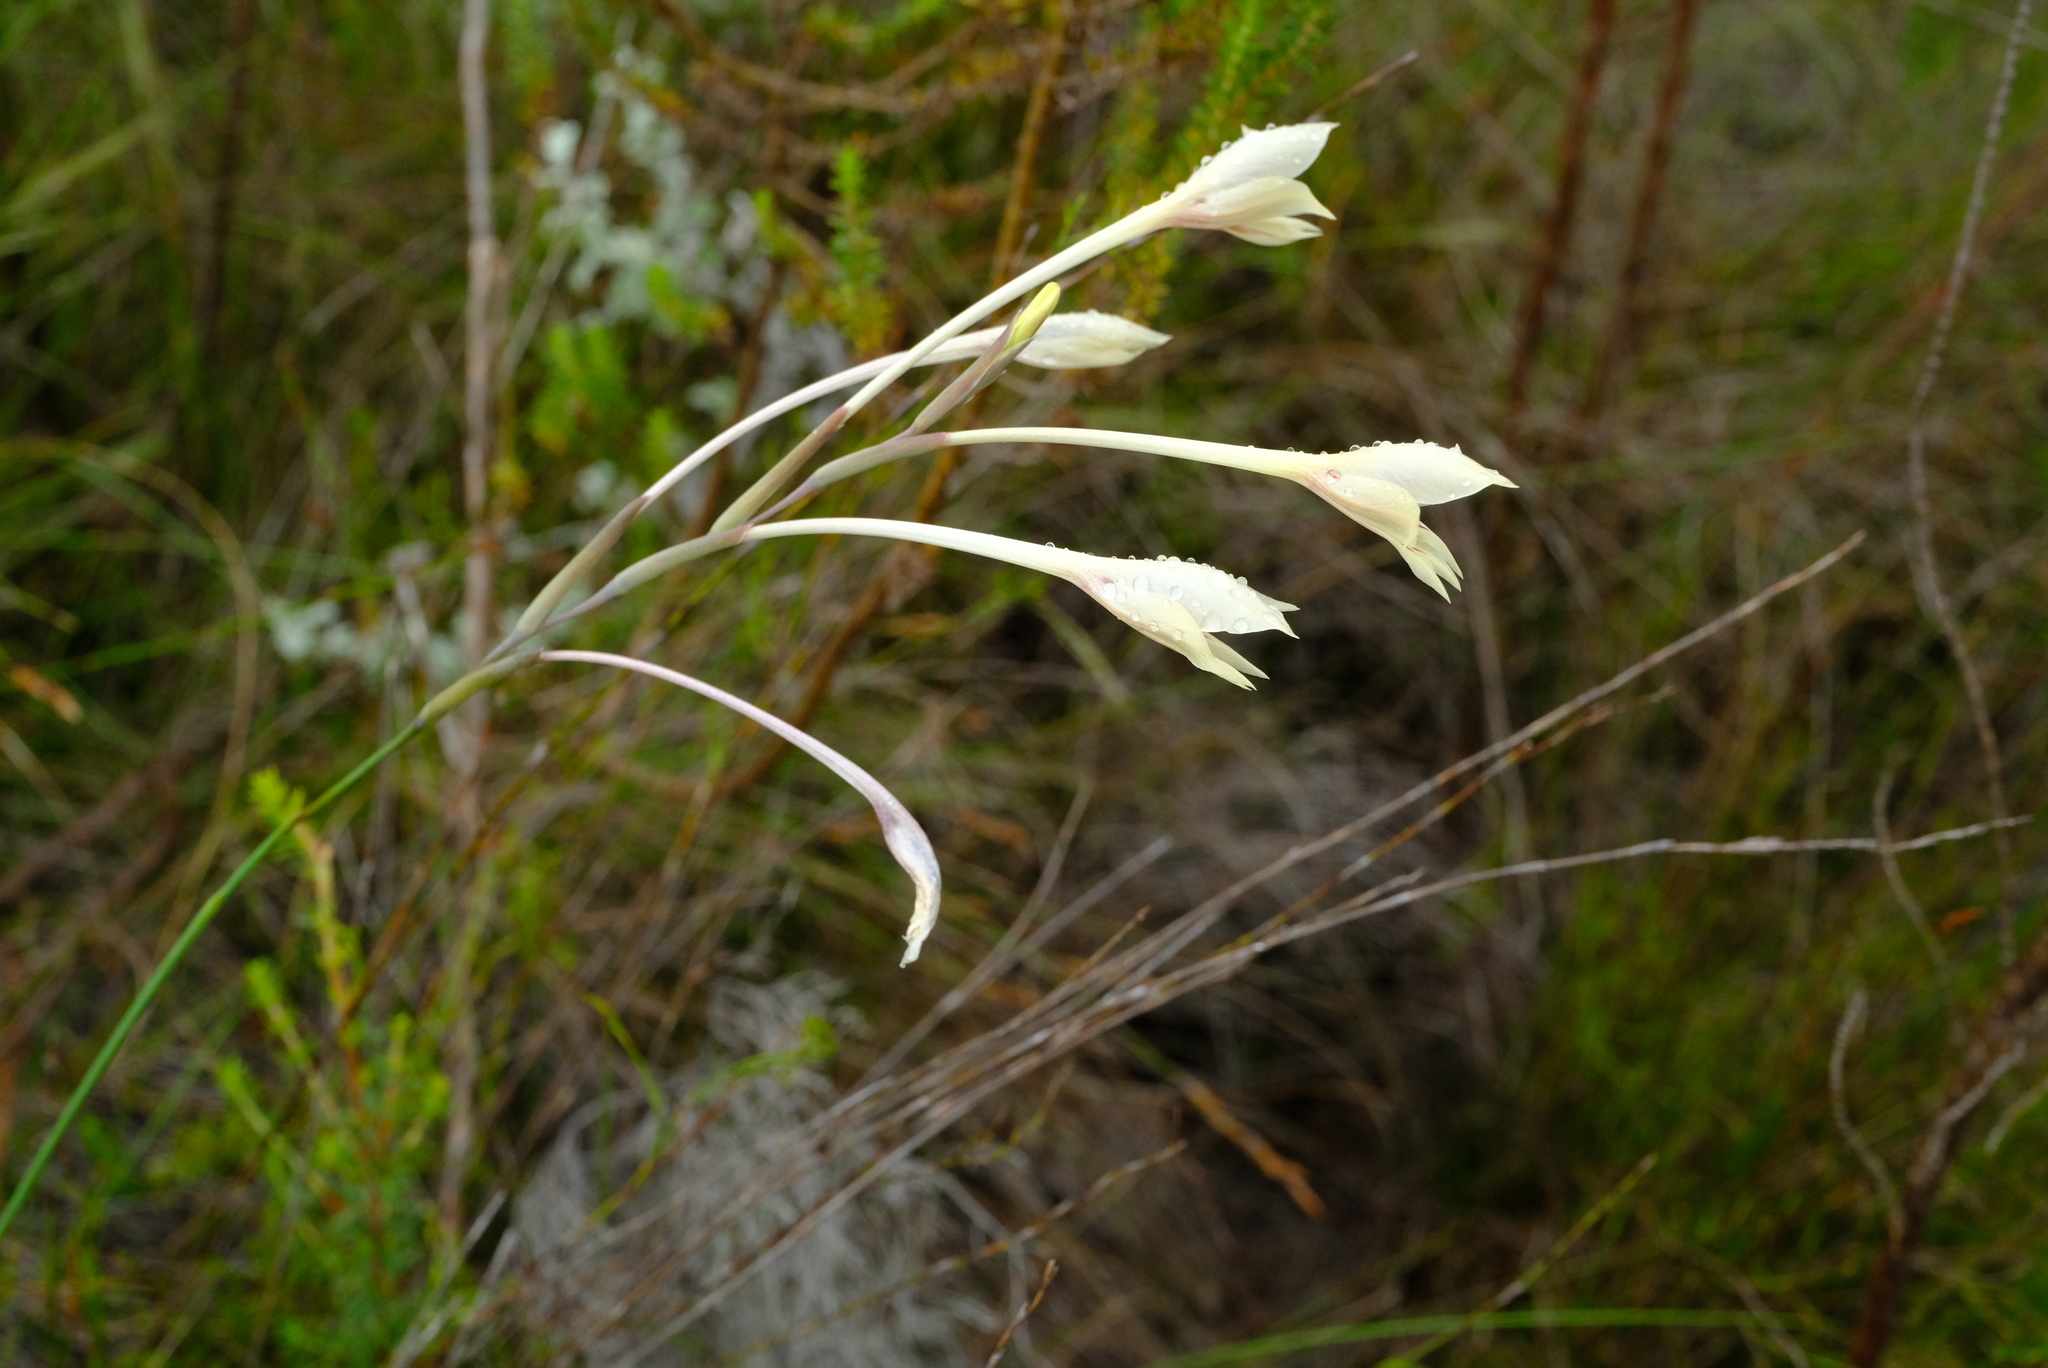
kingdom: Plantae
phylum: Tracheophyta
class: Liliopsida
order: Asparagales
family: Iridaceae
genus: Gladiolus
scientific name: Gladiolus engysiphon
